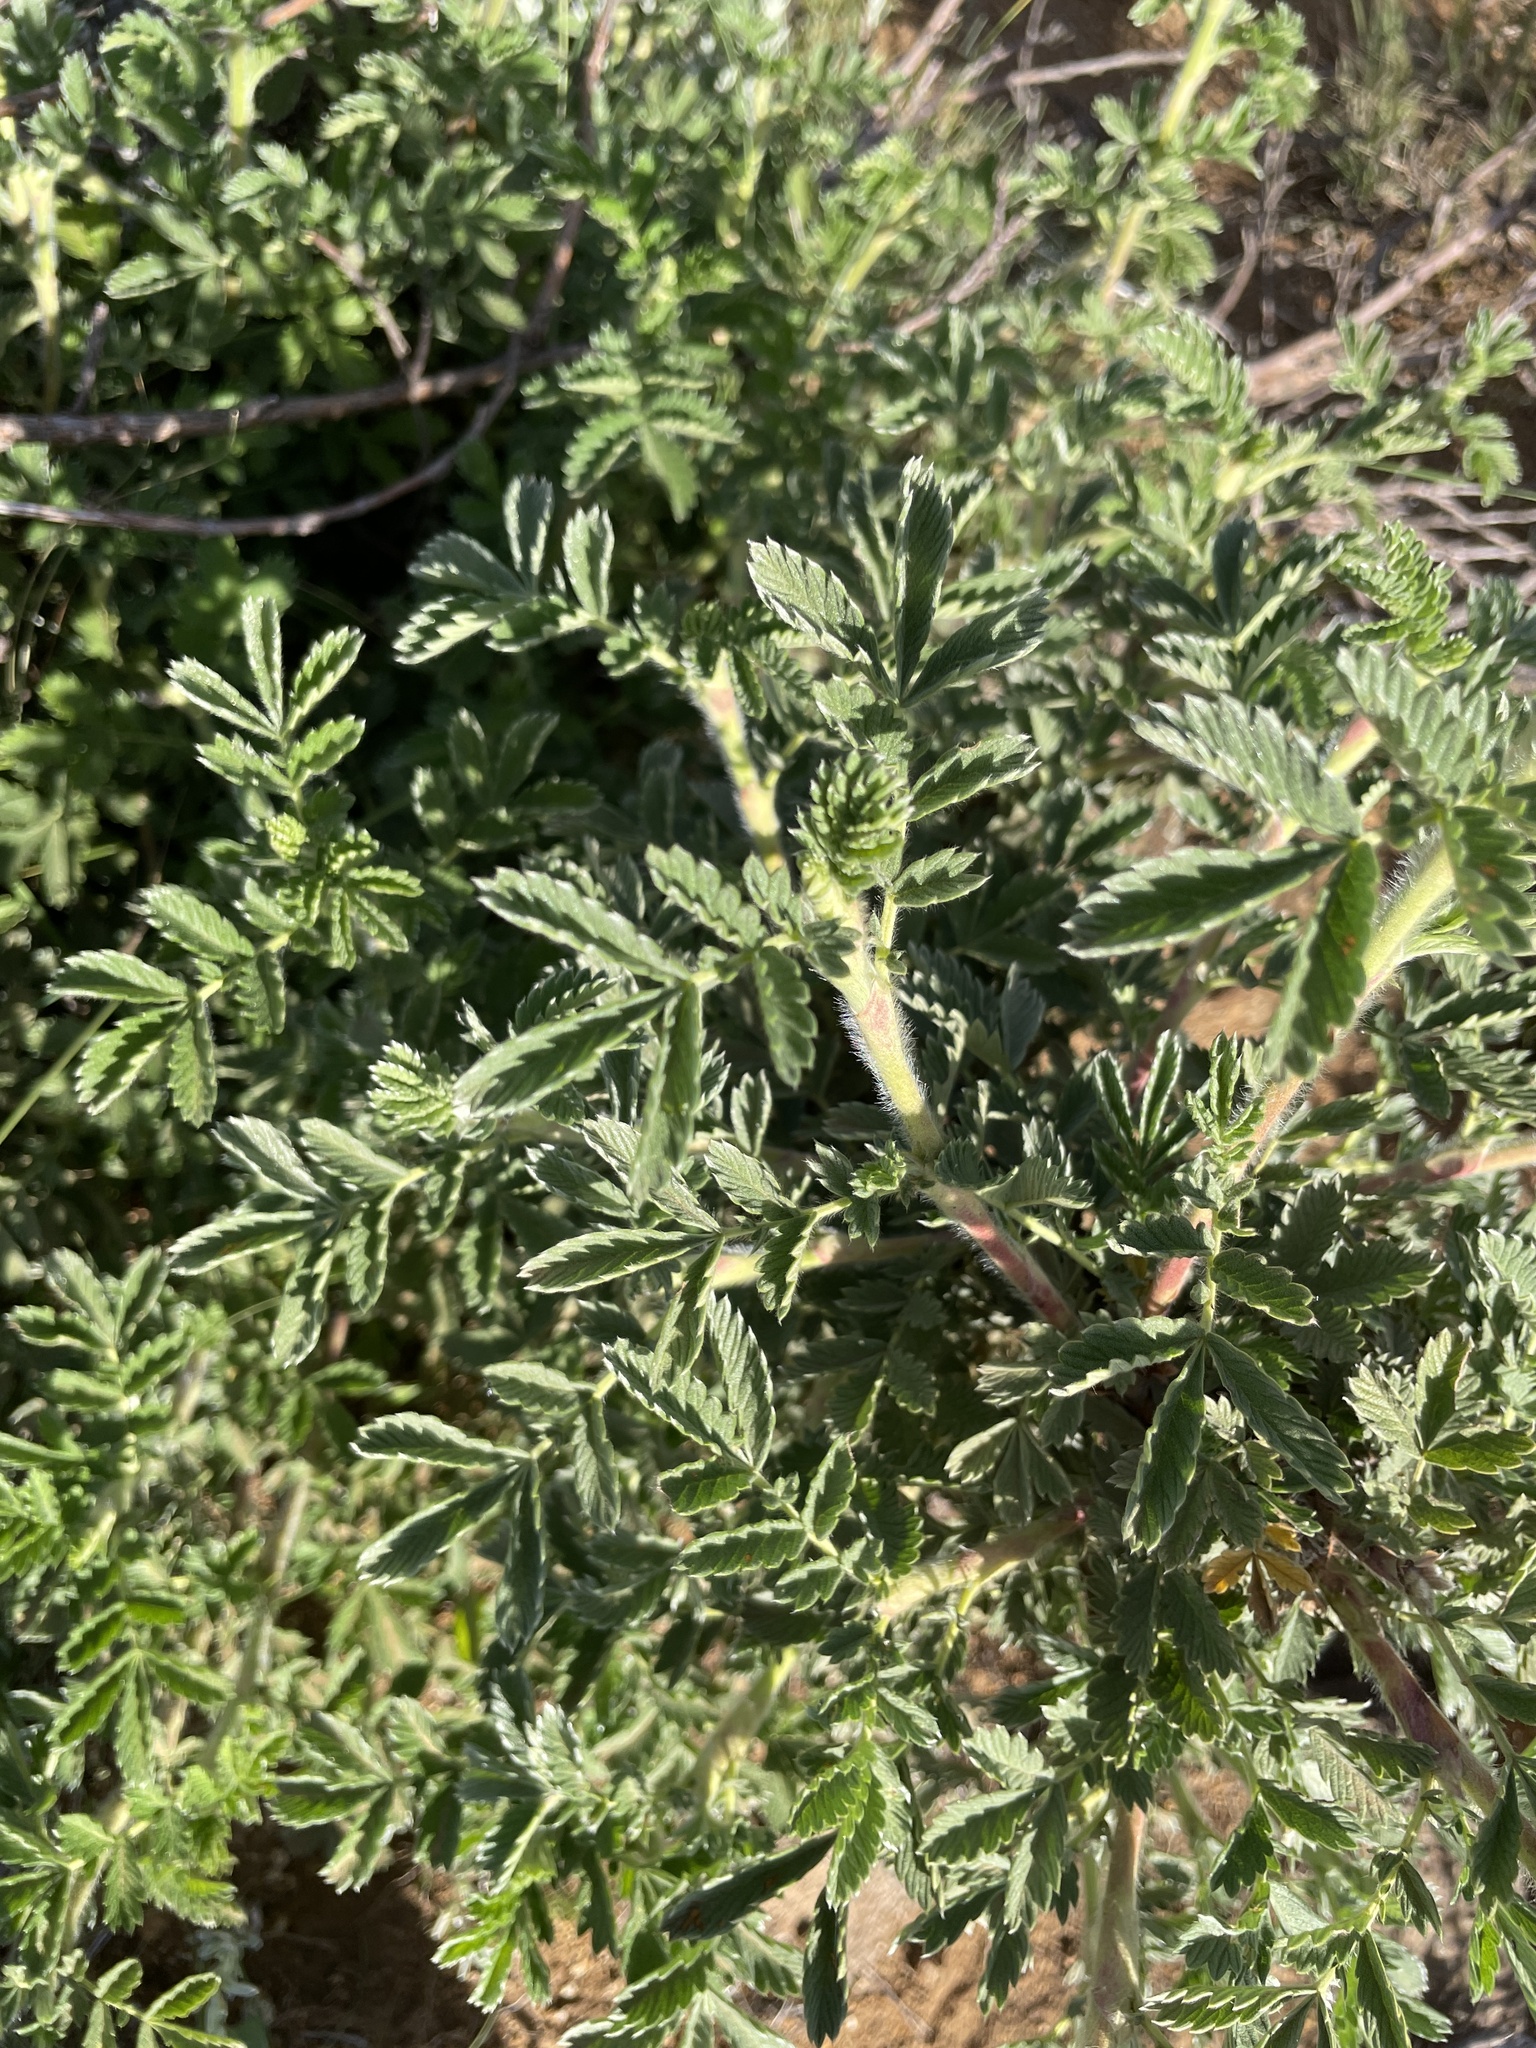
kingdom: Plantae
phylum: Tracheophyta
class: Magnoliopsida
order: Rosales
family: Rosaceae
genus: Leucosidea
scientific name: Leucosidea sericea
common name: Oldwood
